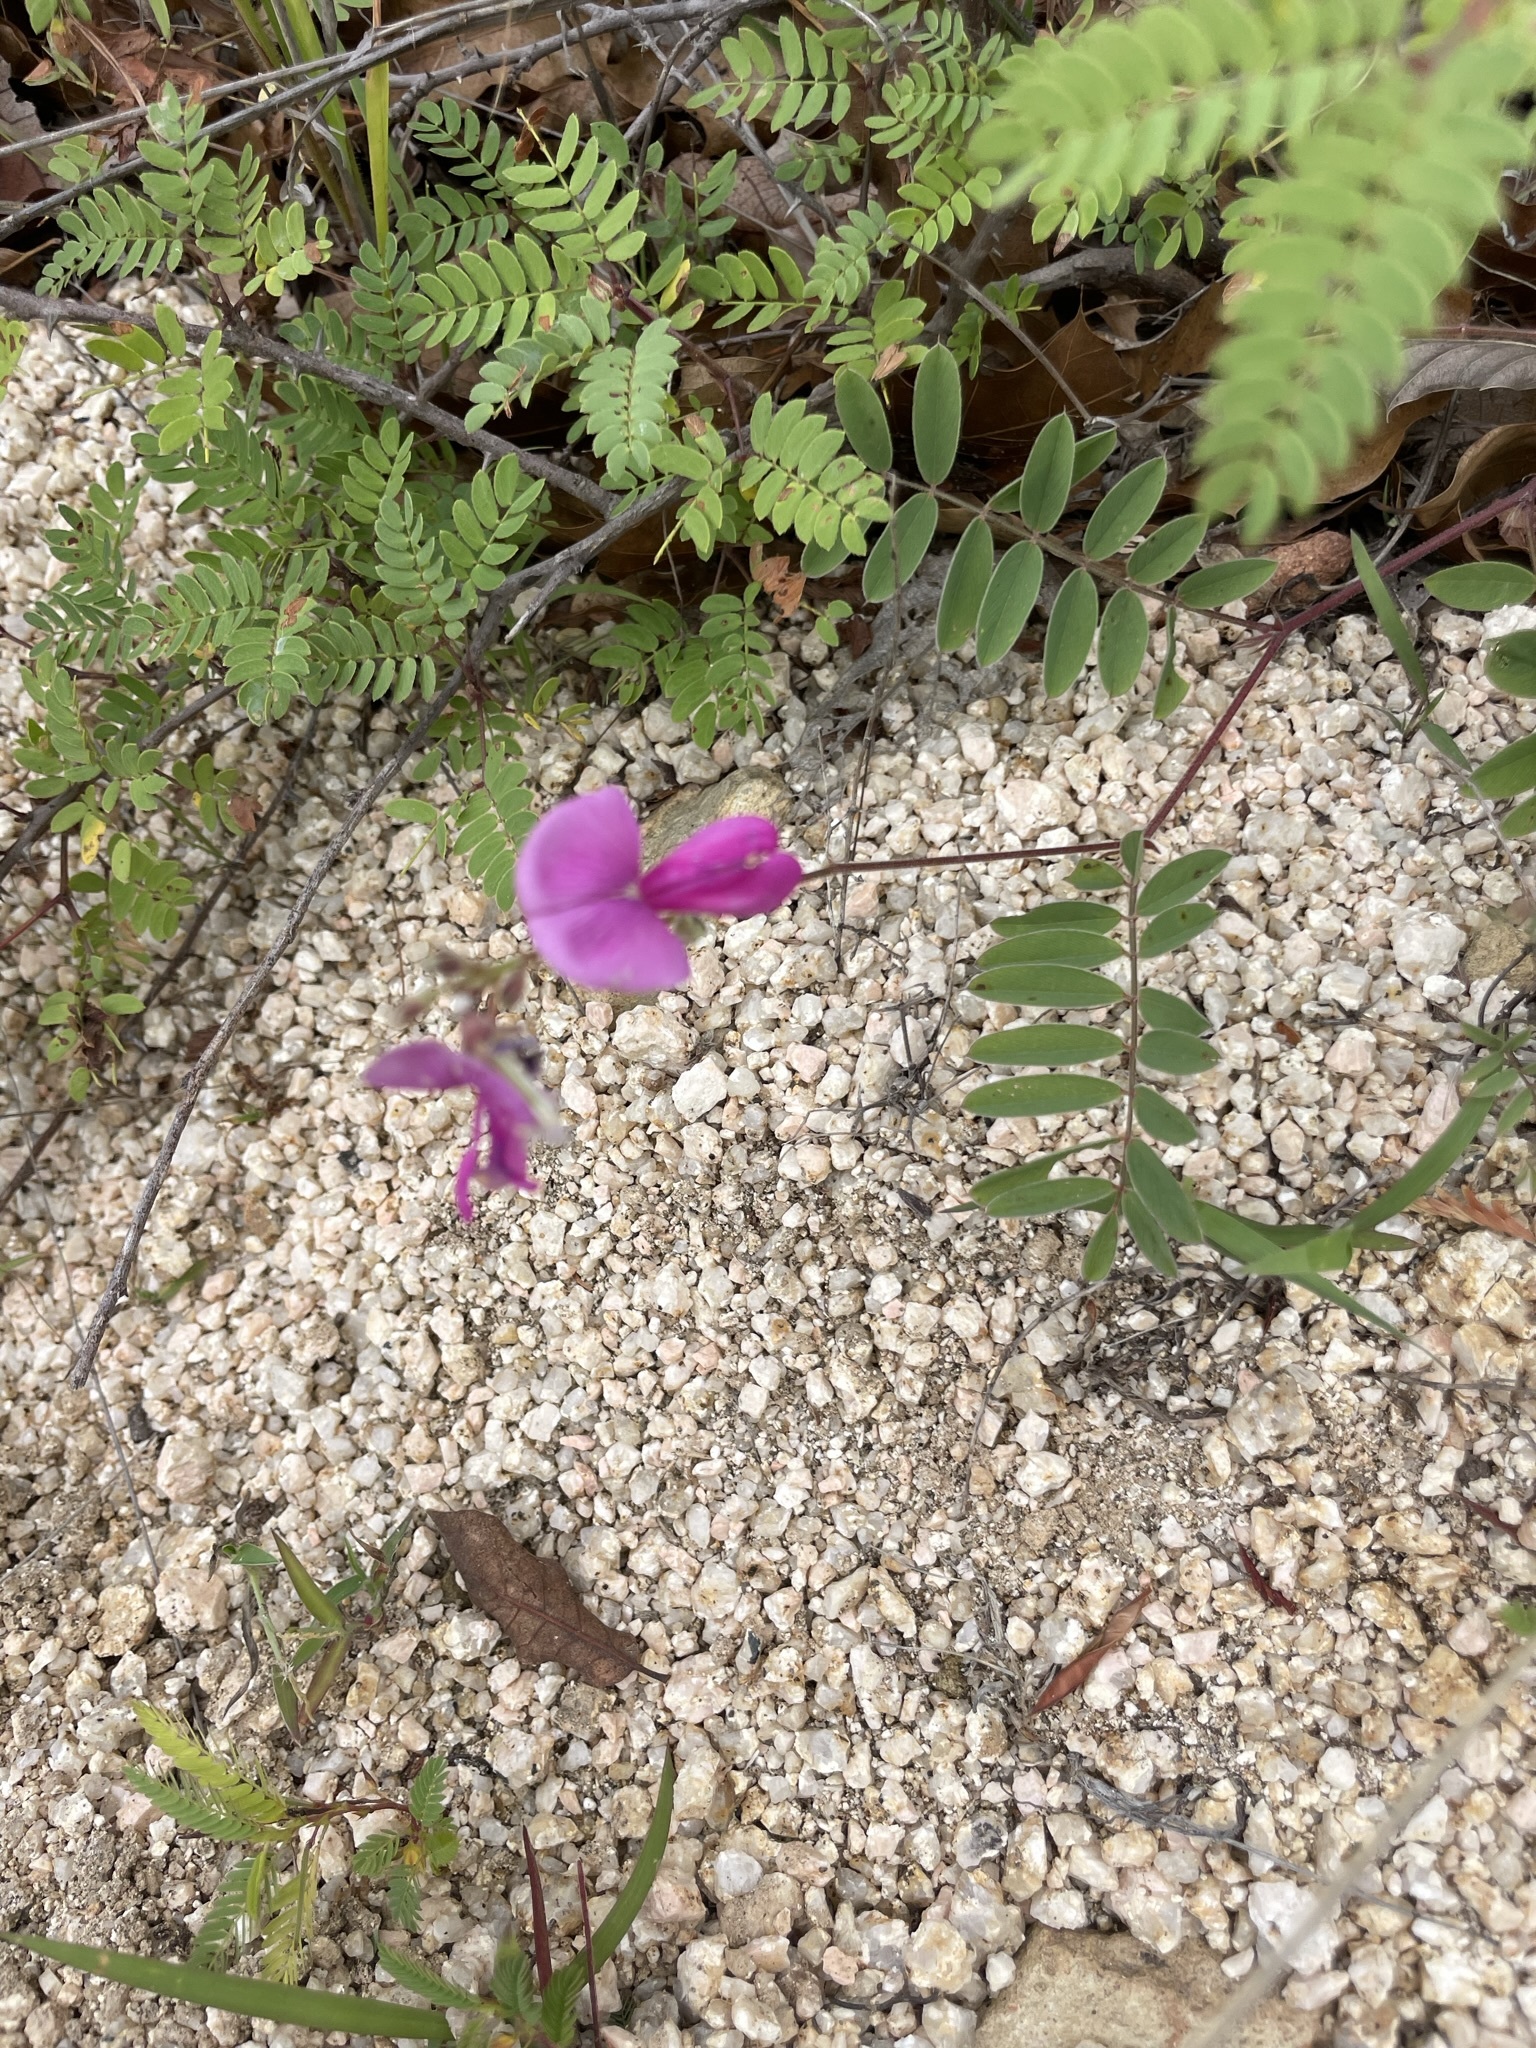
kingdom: Plantae
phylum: Tracheophyta
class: Magnoliopsida
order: Fabales
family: Fabaceae
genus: Tephrosia
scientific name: Tephrosia palmeri
